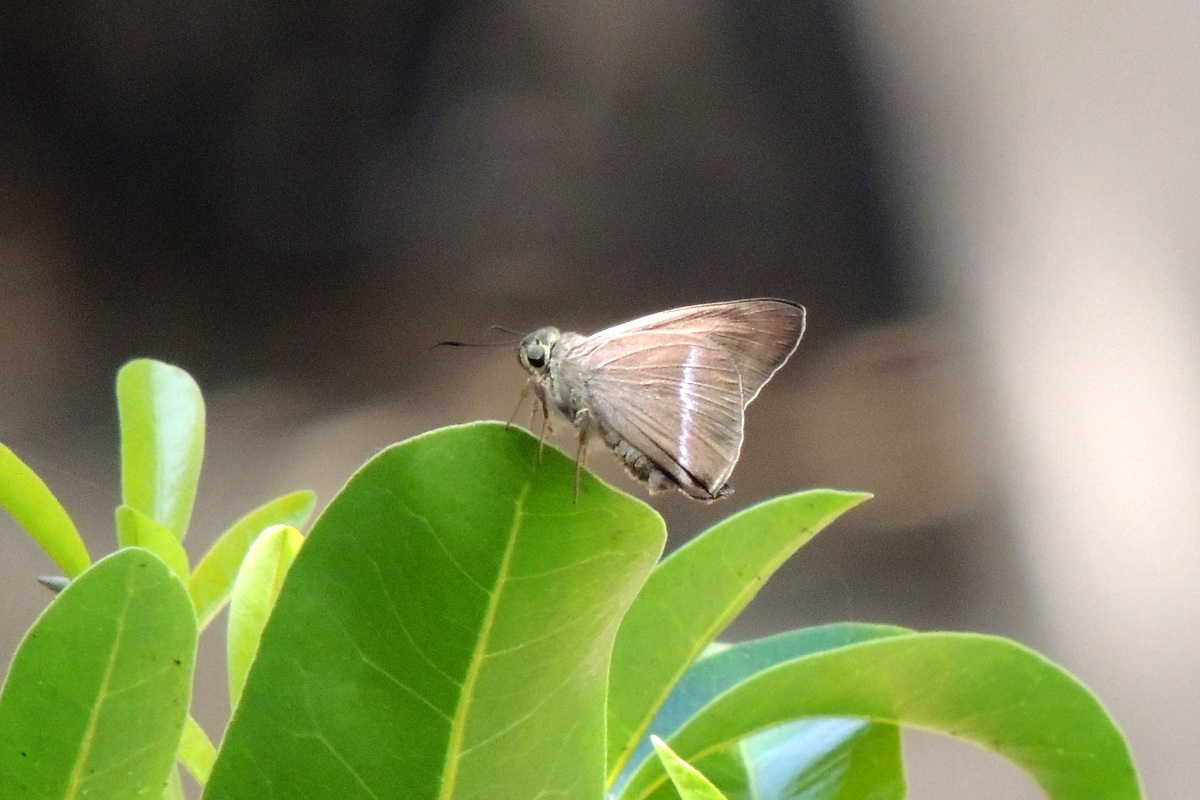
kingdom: Animalia
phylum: Arthropoda
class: Insecta
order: Lepidoptera
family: Hesperiidae
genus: Hasora
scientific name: Hasora chromus
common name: Common banded awl
